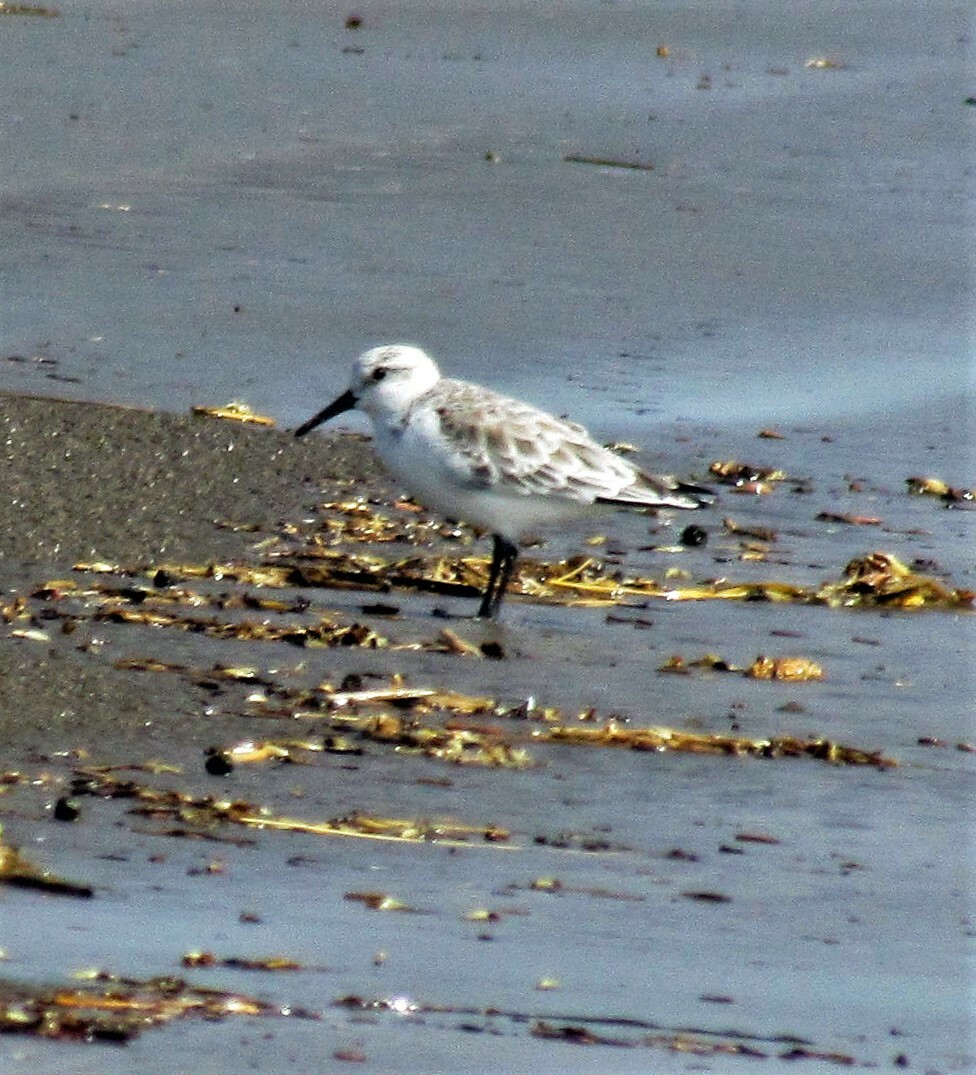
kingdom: Animalia
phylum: Chordata
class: Aves
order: Charadriiformes
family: Scolopacidae
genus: Calidris
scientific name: Calidris alba
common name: Sanderling
